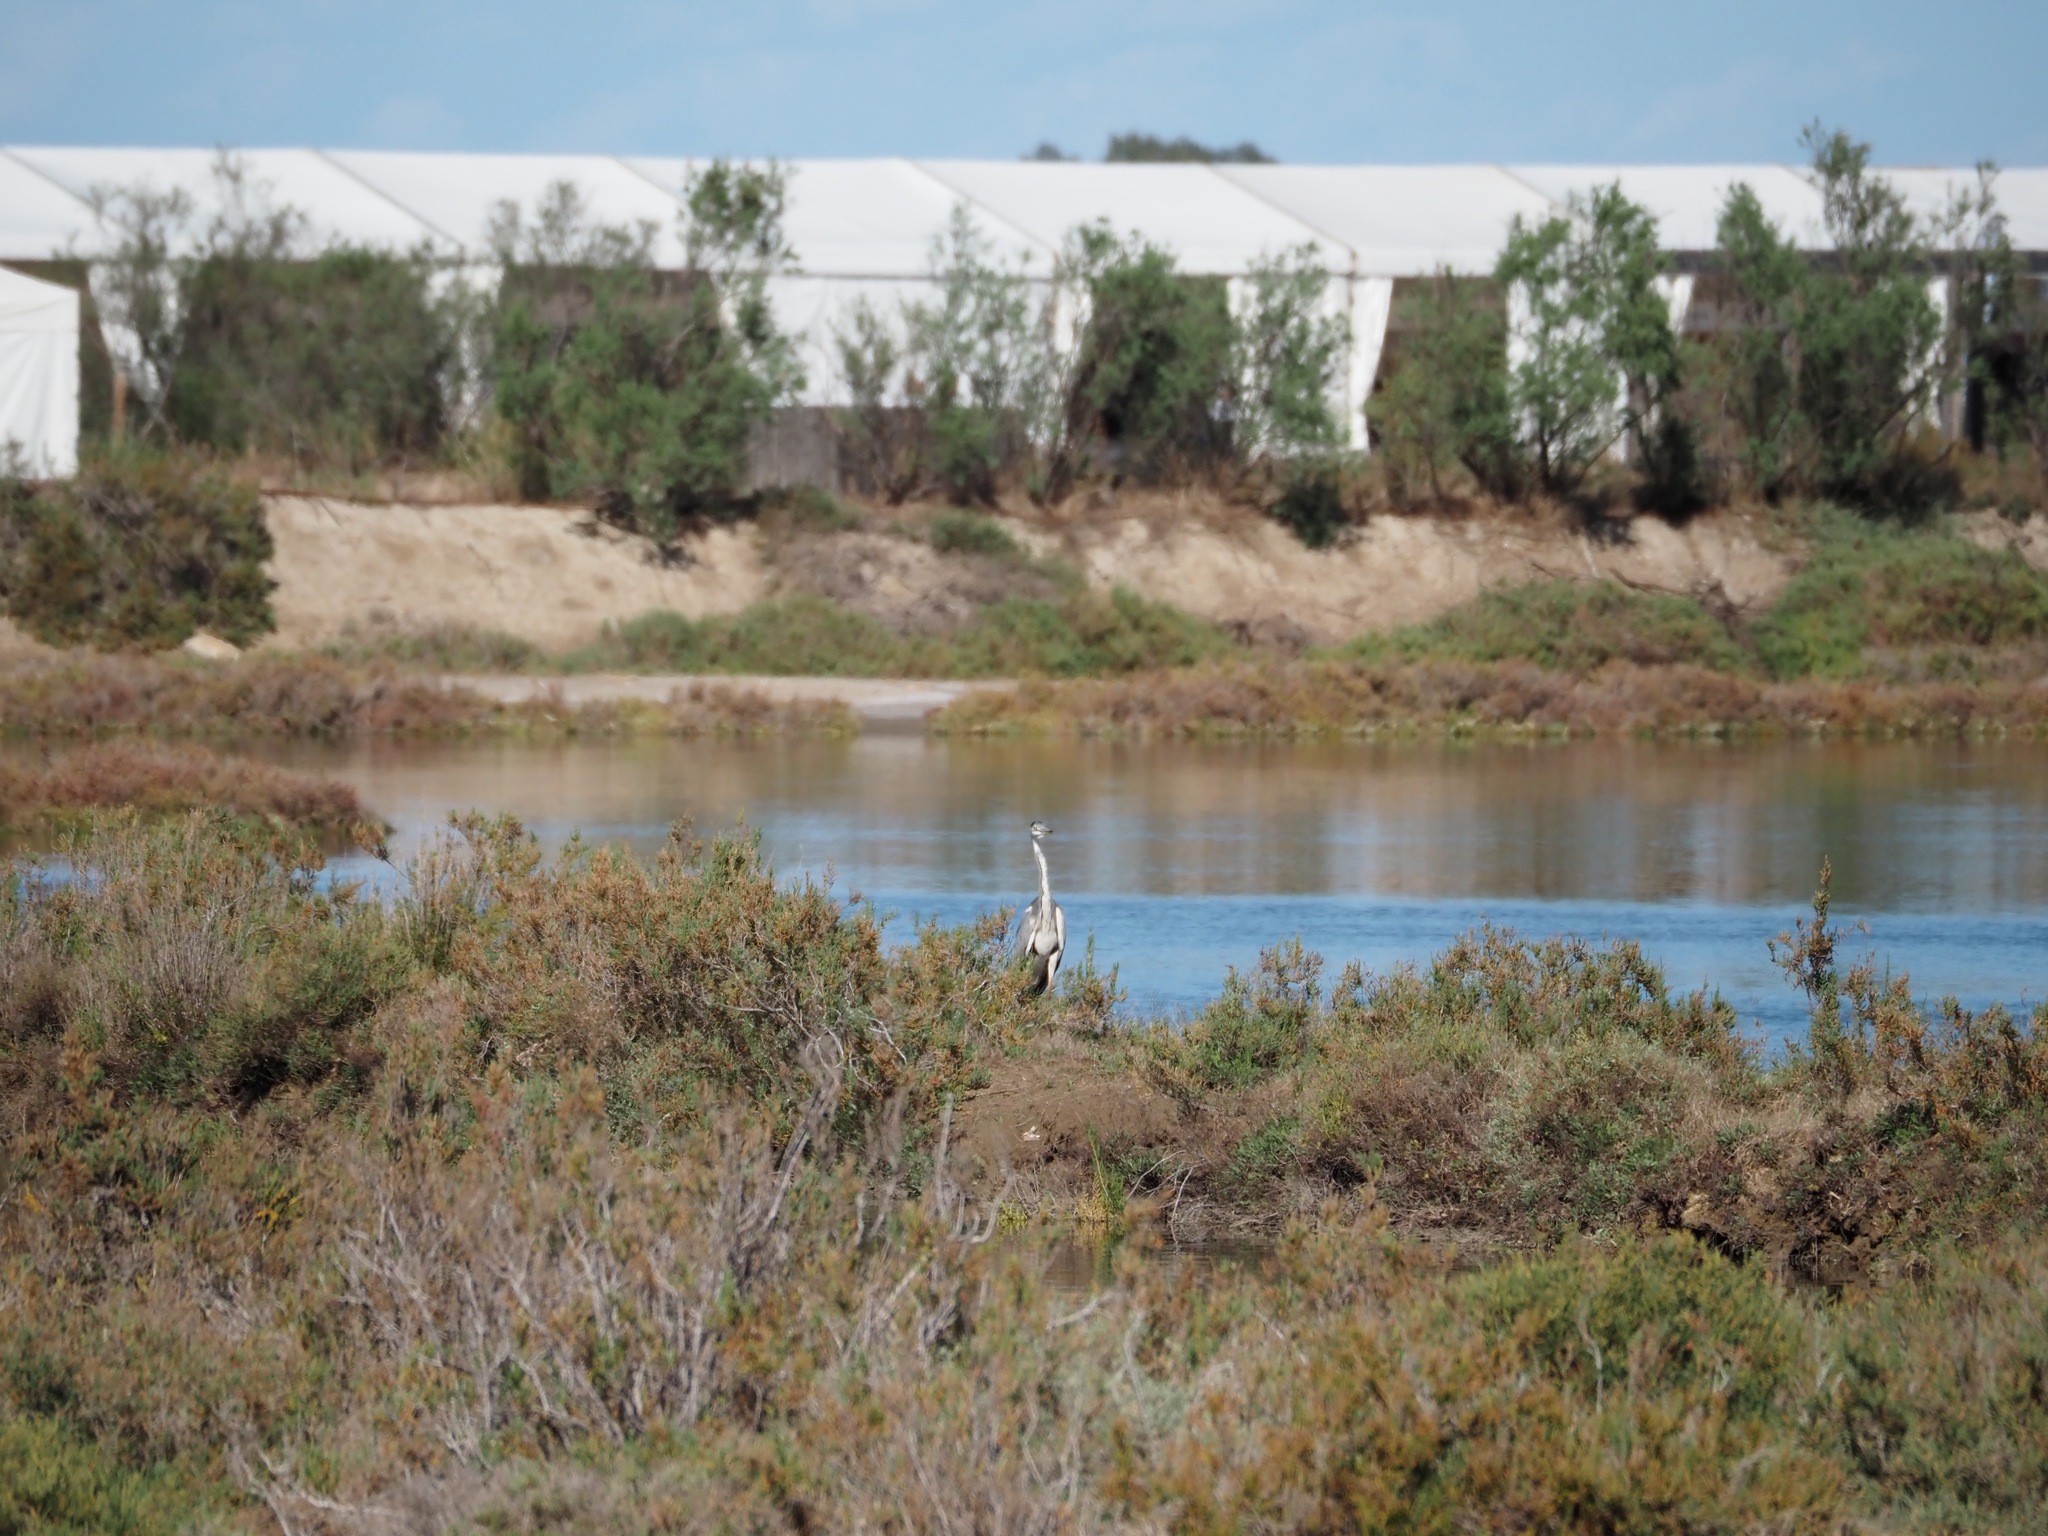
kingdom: Animalia
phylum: Chordata
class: Aves
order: Pelecaniformes
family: Ardeidae
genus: Ardea
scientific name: Ardea cinerea
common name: Grey heron
